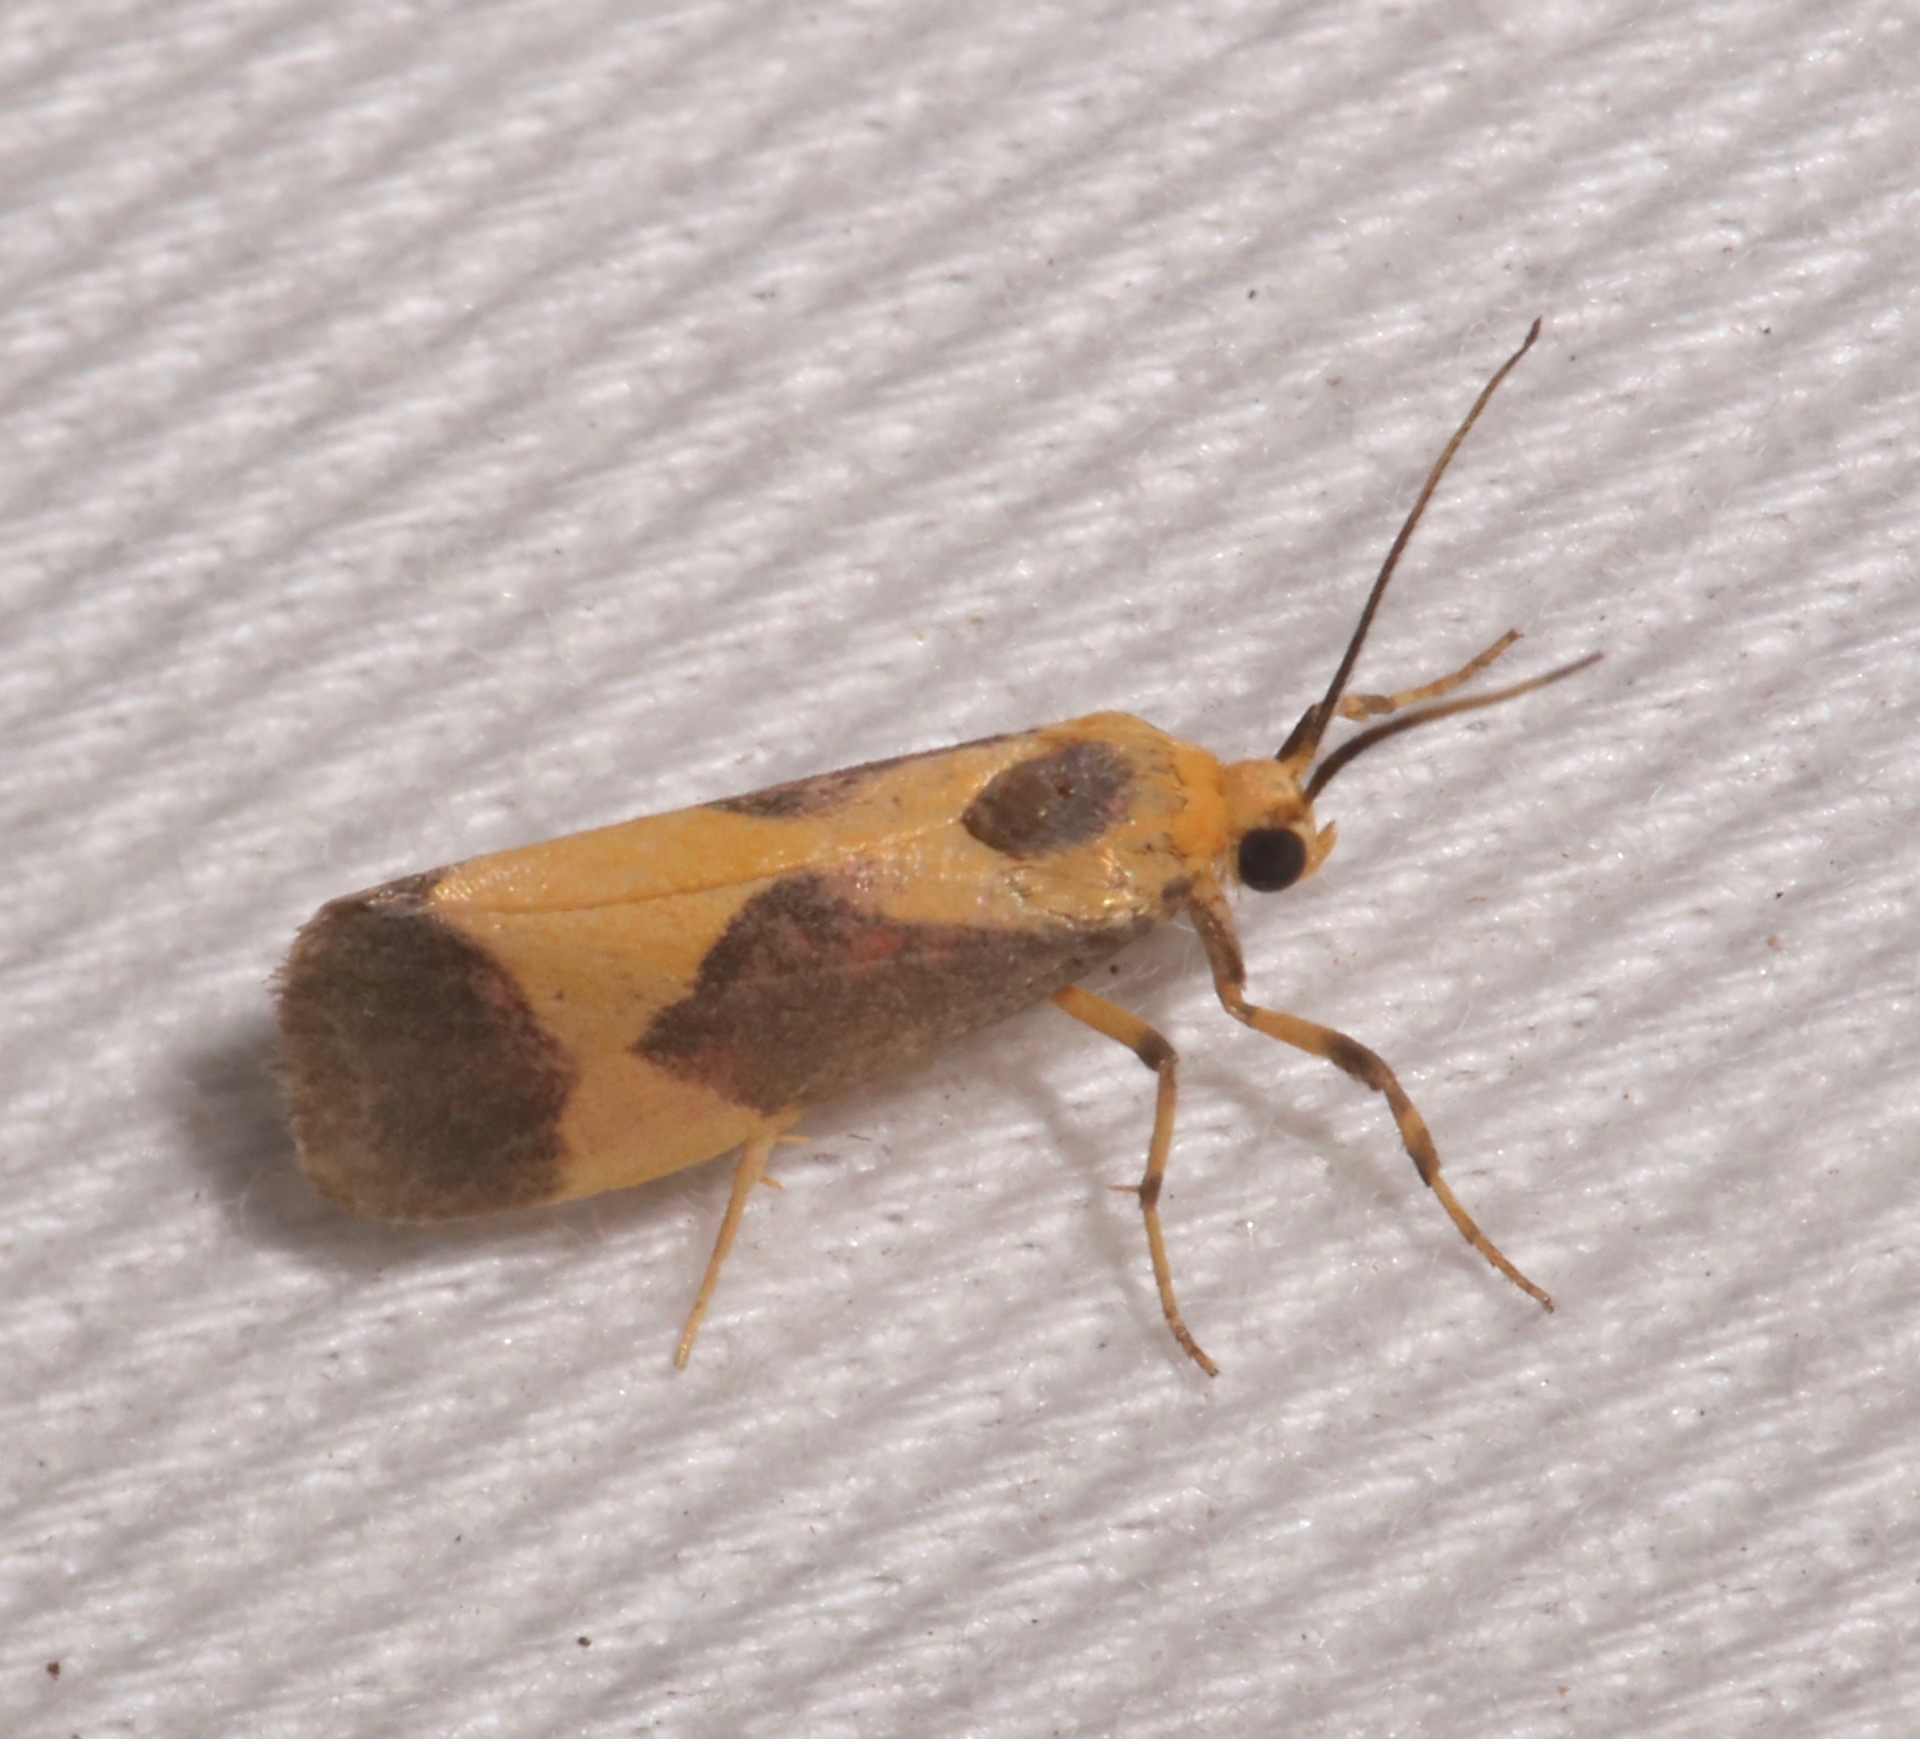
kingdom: Animalia
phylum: Arthropoda
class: Insecta
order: Lepidoptera
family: Erebidae
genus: Cisthene
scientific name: Cisthene unifascia
